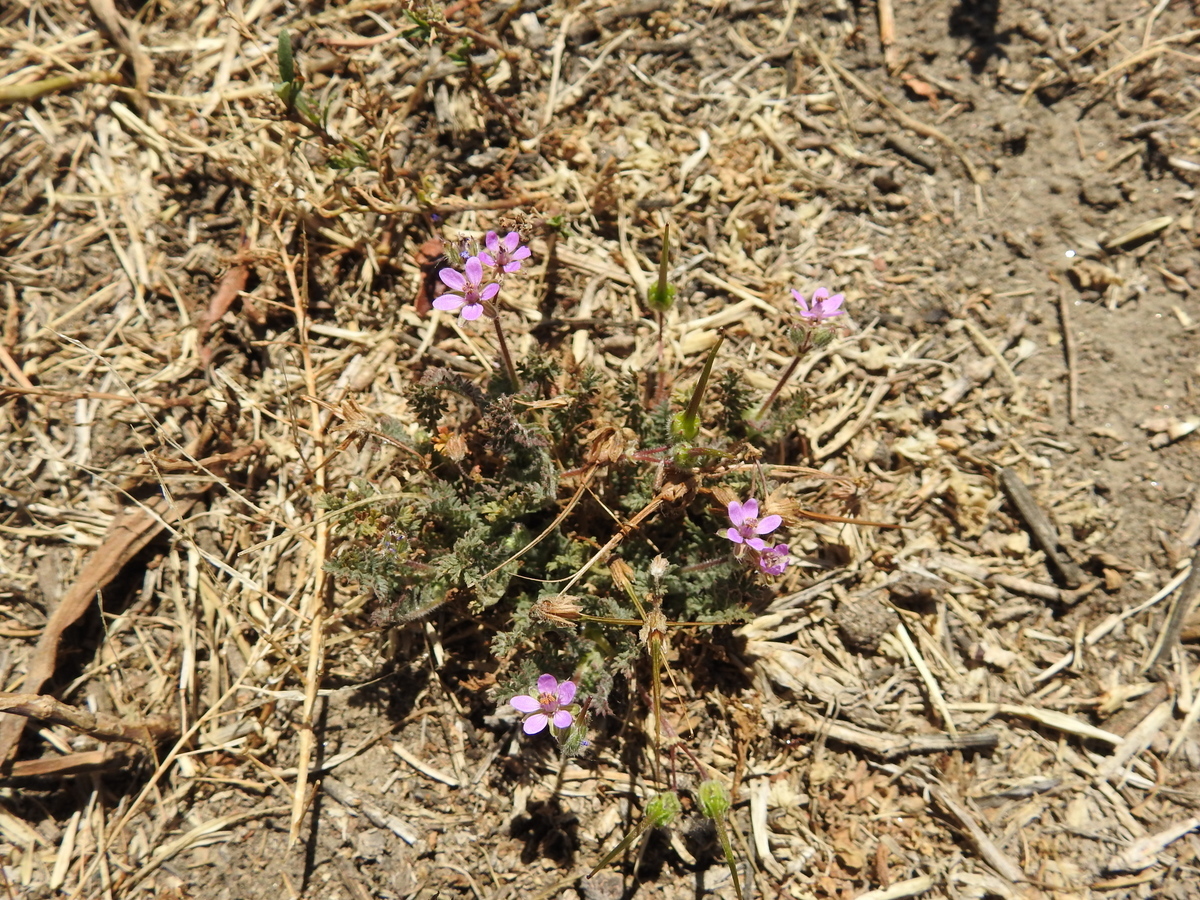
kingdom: Plantae
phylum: Tracheophyta
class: Magnoliopsida
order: Geraniales
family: Geraniaceae
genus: Erodium
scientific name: Erodium cicutarium
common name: Common stork's-bill
